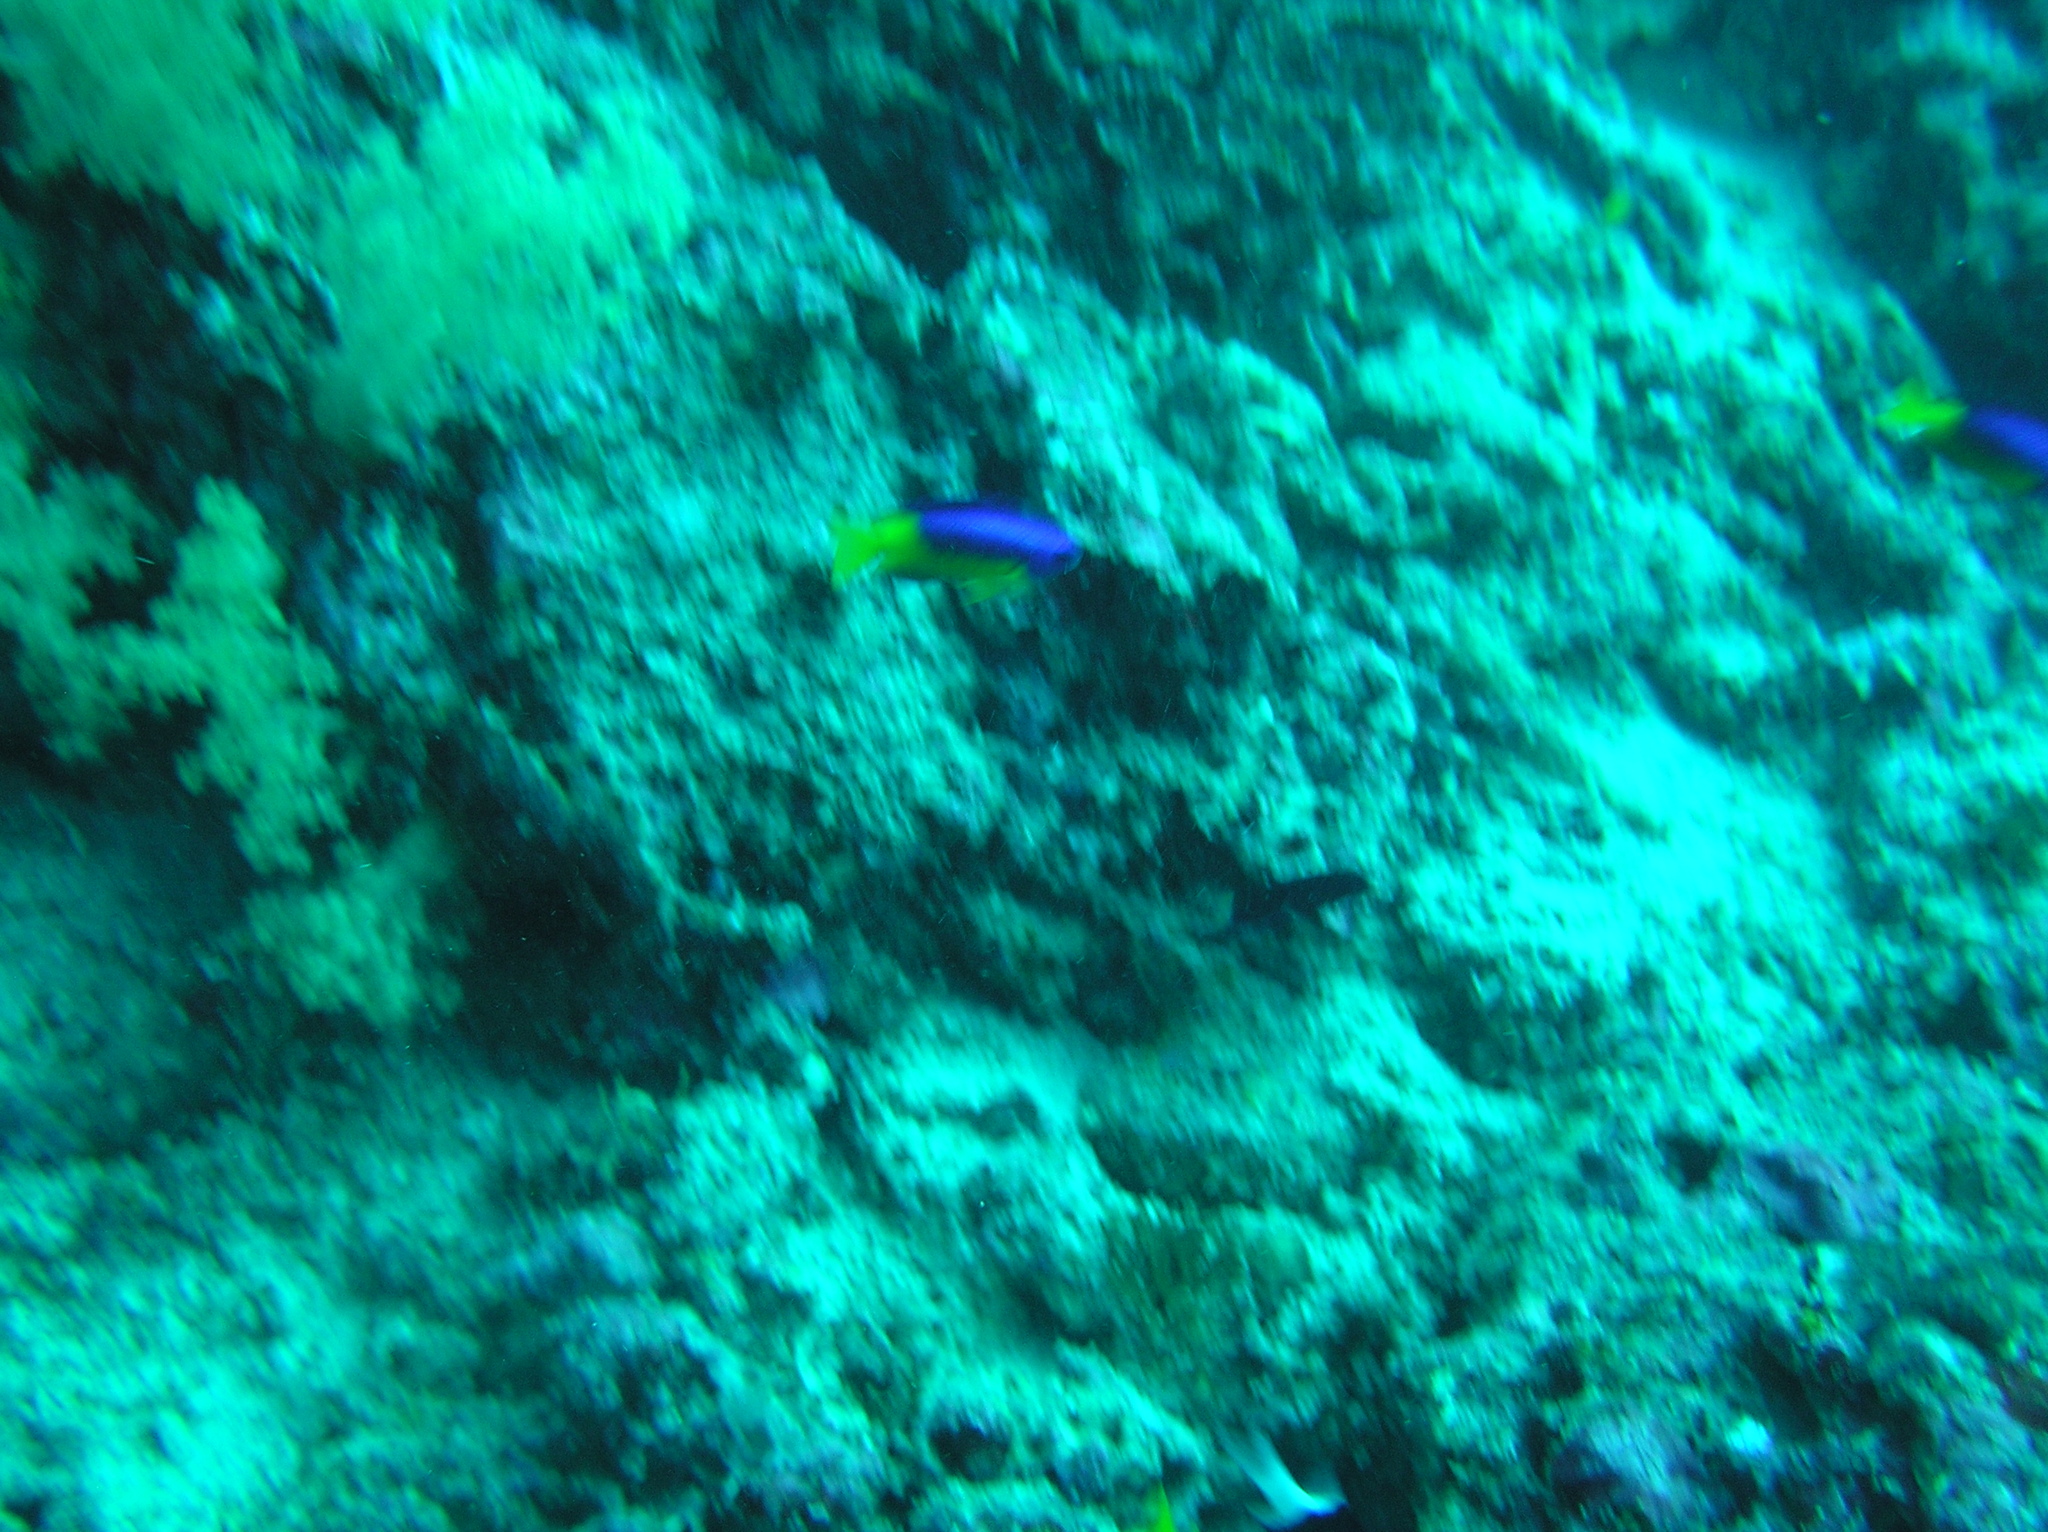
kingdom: Animalia
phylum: Chordata
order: Perciformes
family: Pomacentridae
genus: Pomacentrus
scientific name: Pomacentrus auriventris
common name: Goldbelly damsel
